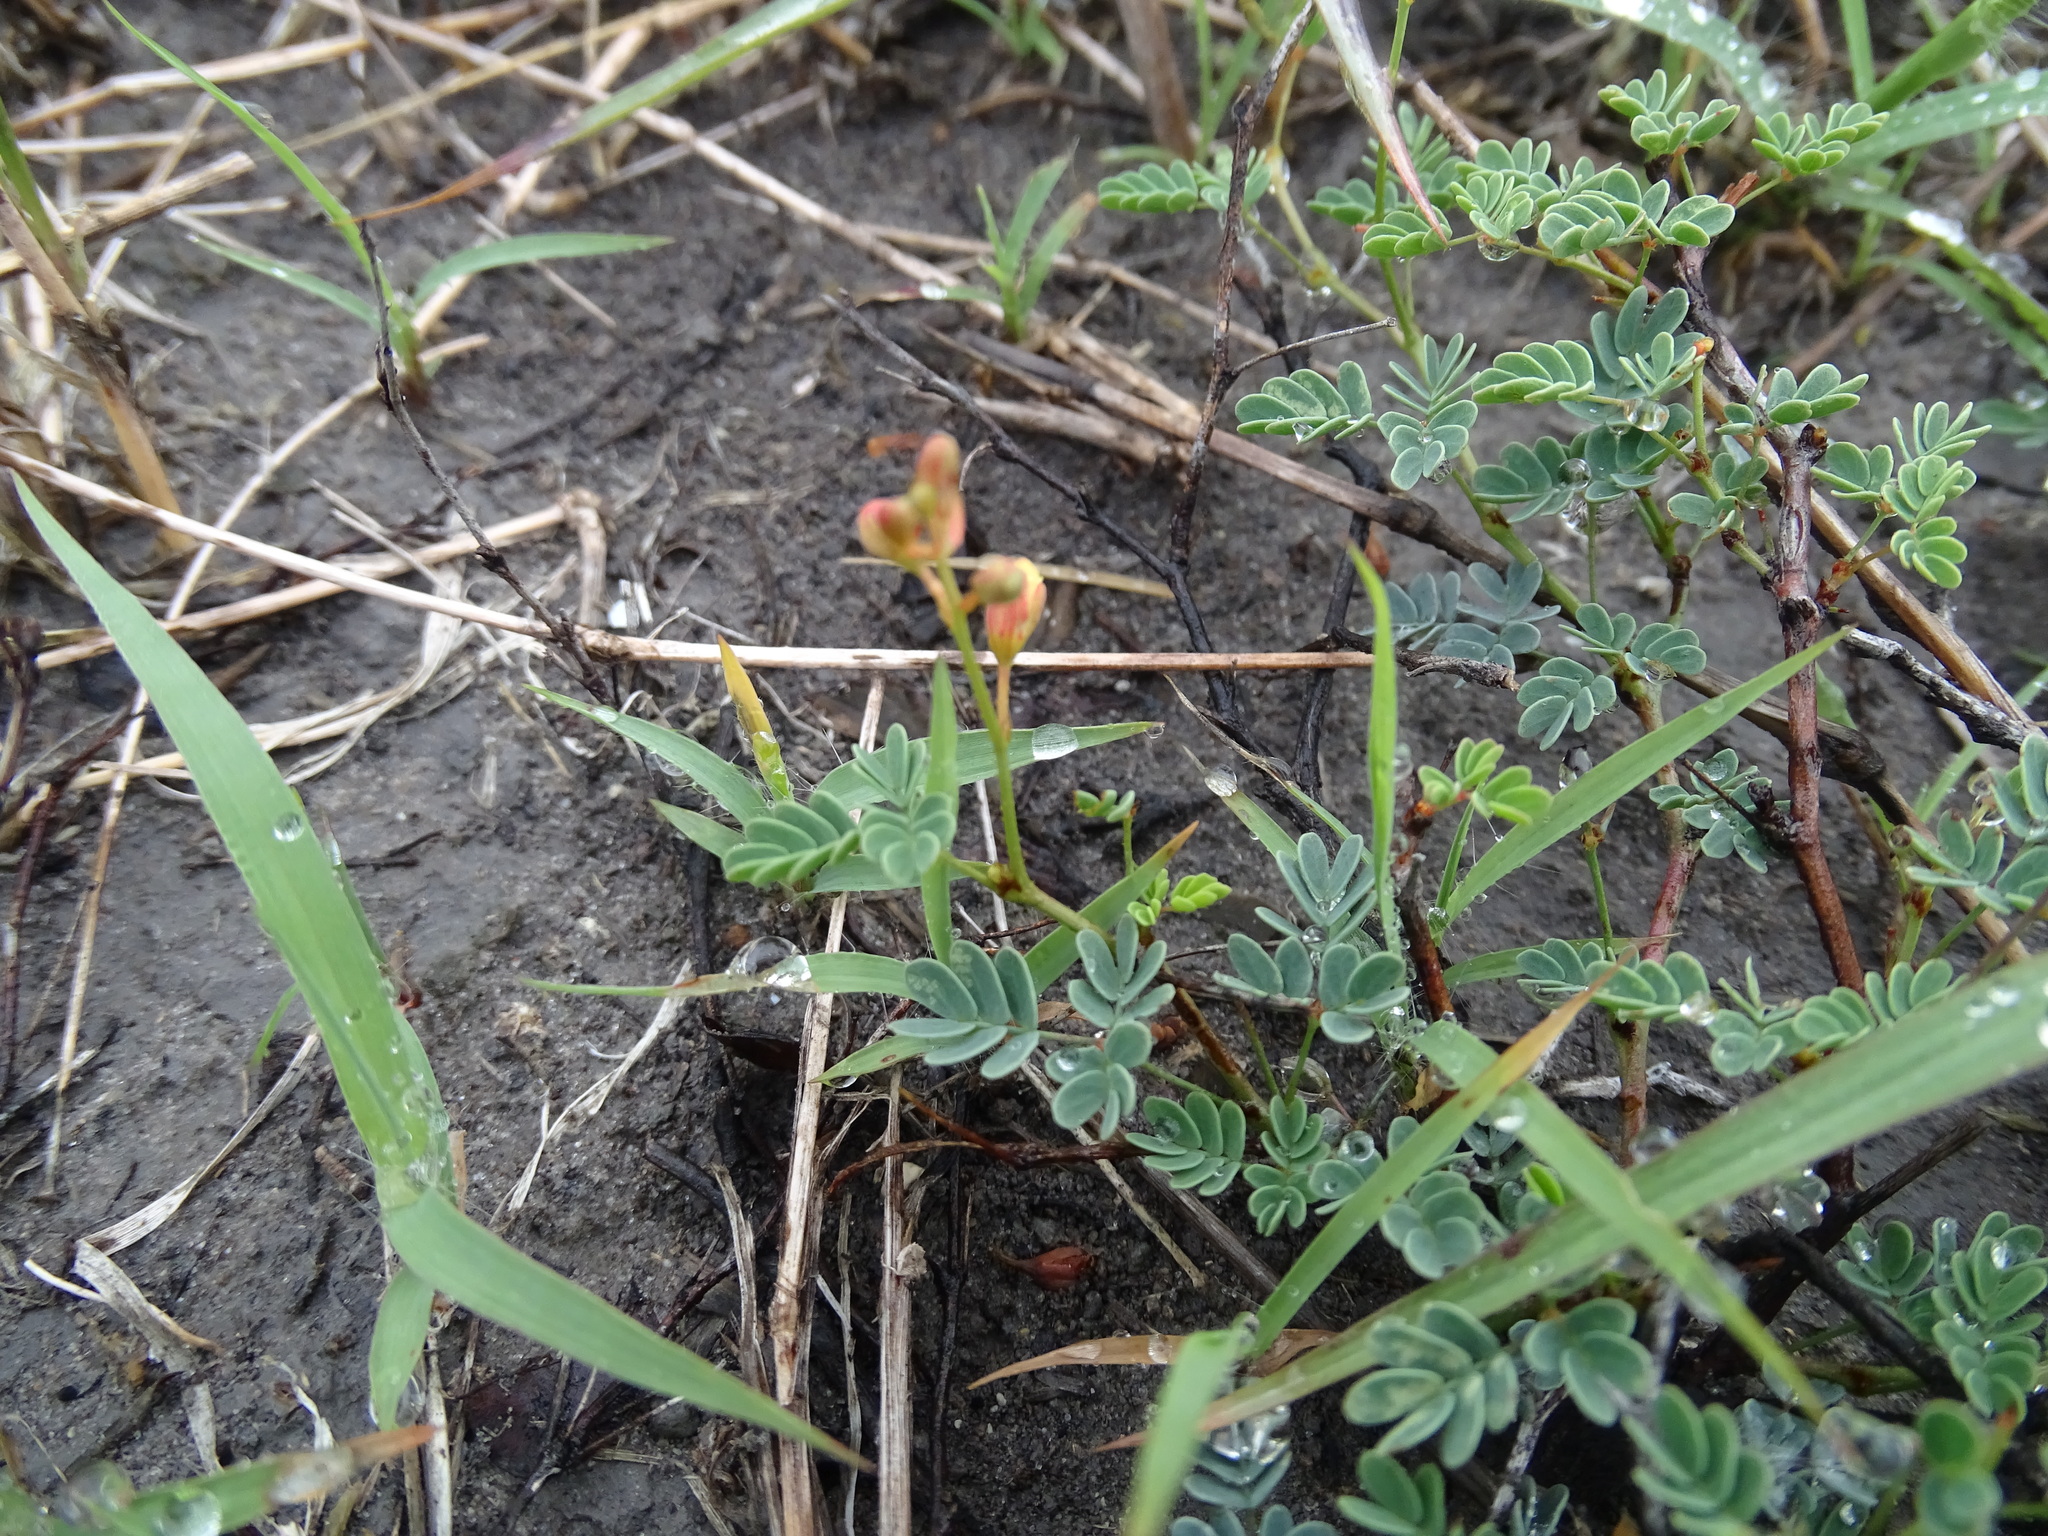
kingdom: Plantae
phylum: Tracheophyta
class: Magnoliopsida
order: Fabales
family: Fabaceae
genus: Hoffmannseggia
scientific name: Hoffmannseggia glauca
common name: Pignut
